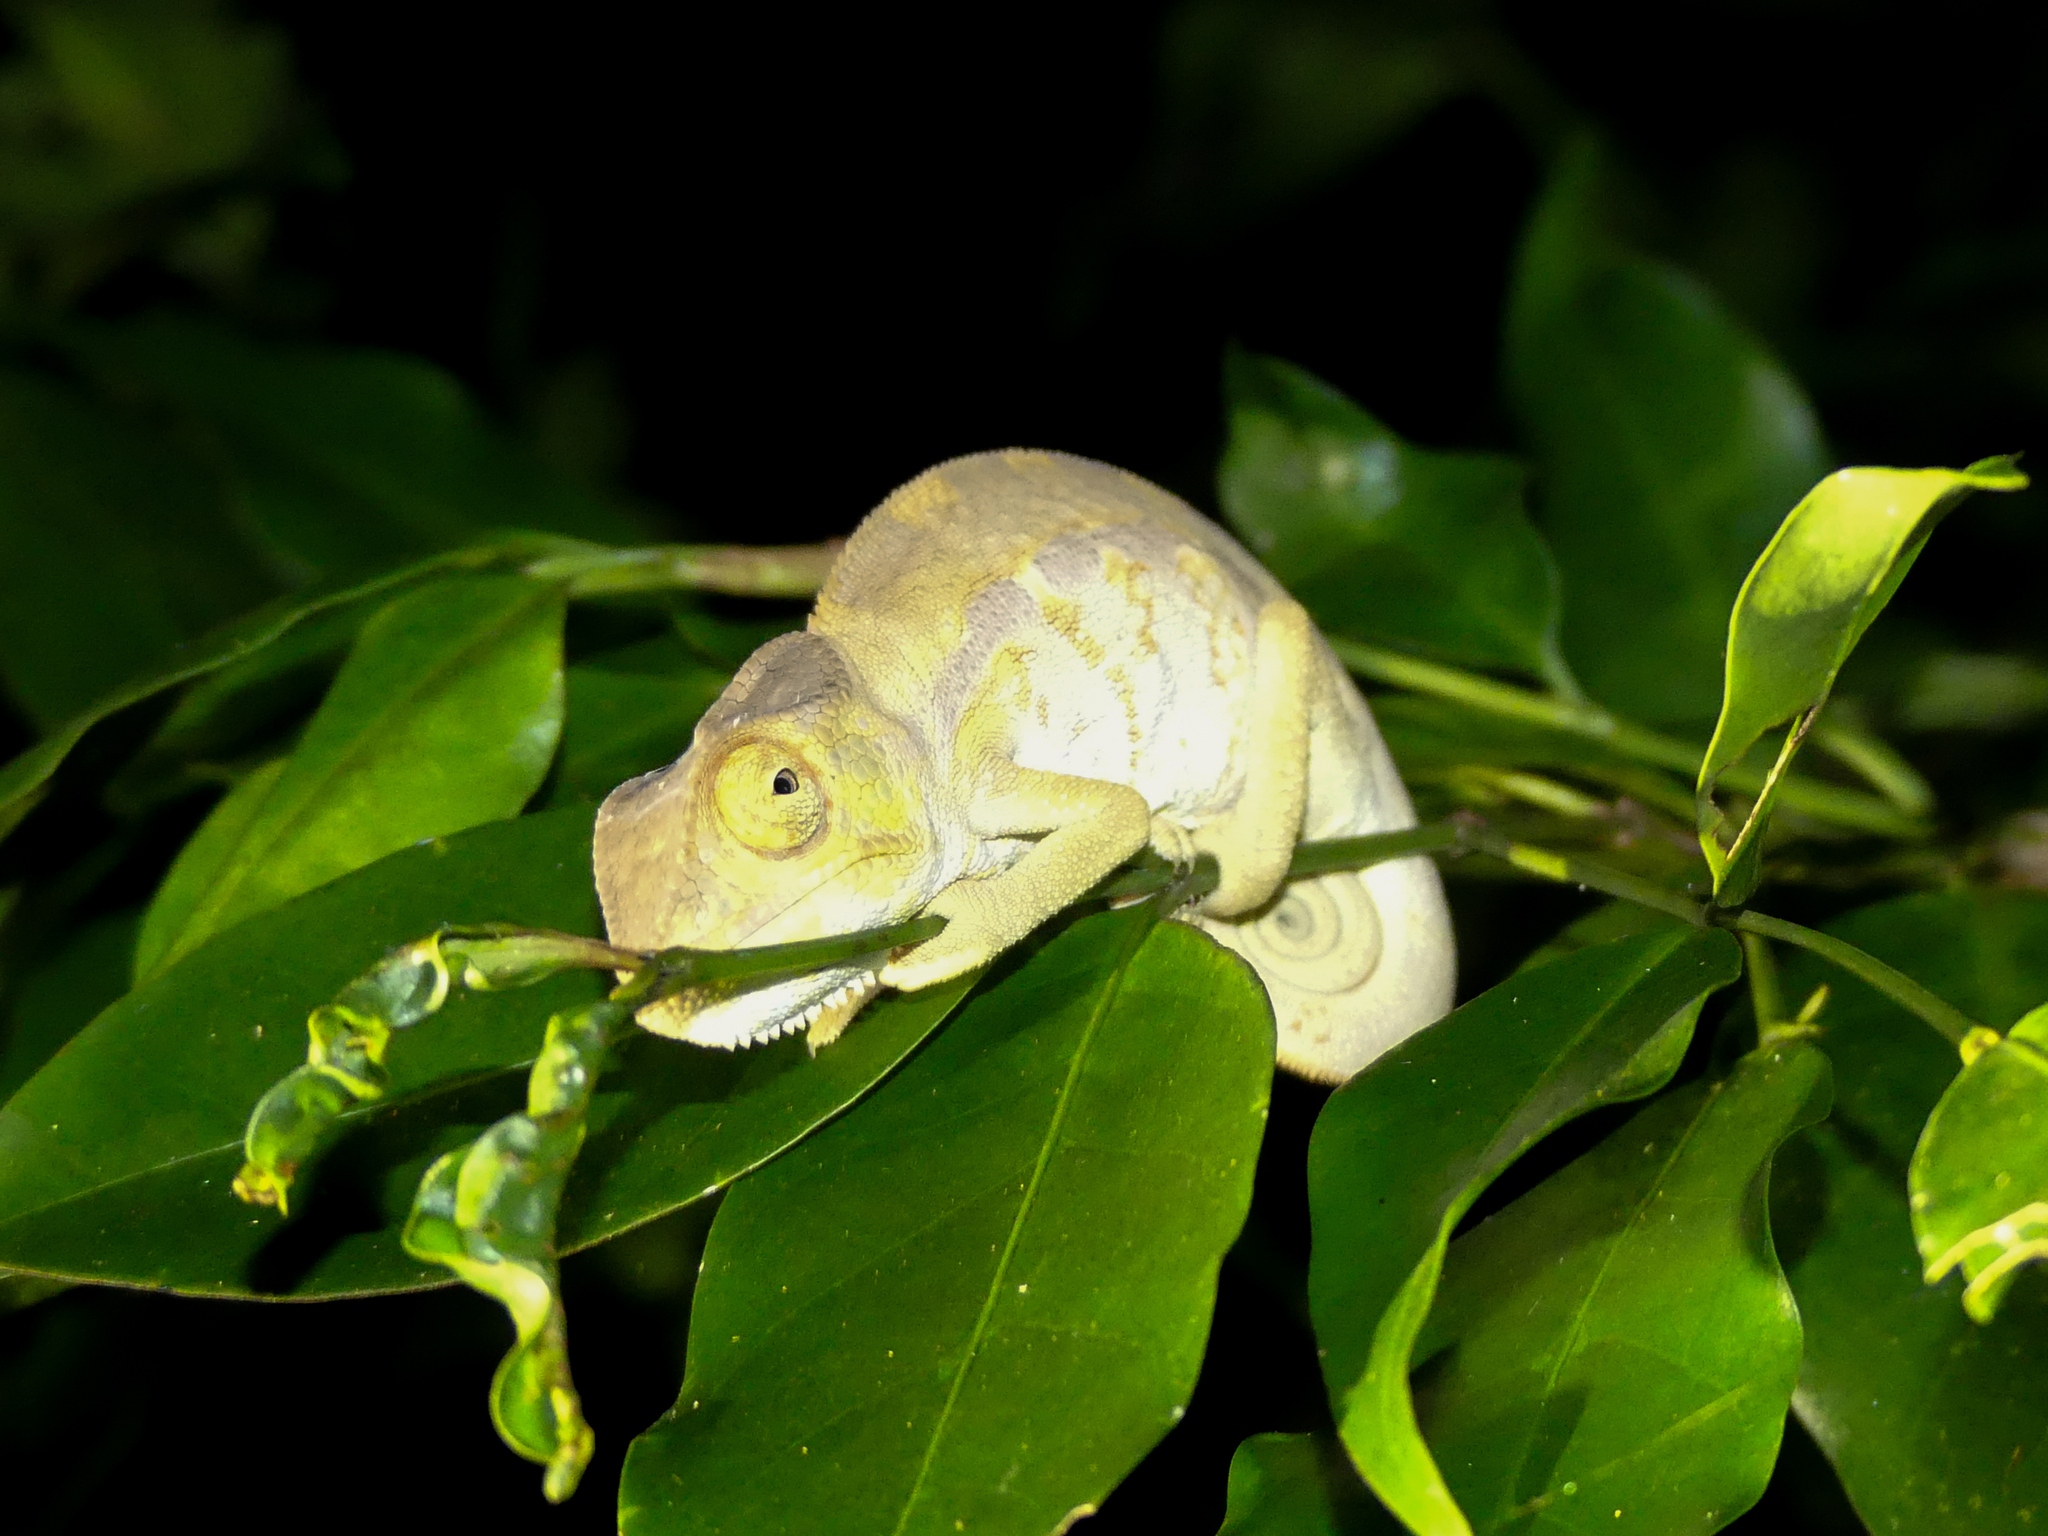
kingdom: Animalia
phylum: Chordata
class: Squamata
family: Chamaeleonidae
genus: Furcifer
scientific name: Furcifer pardalis
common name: Panther chameleon
